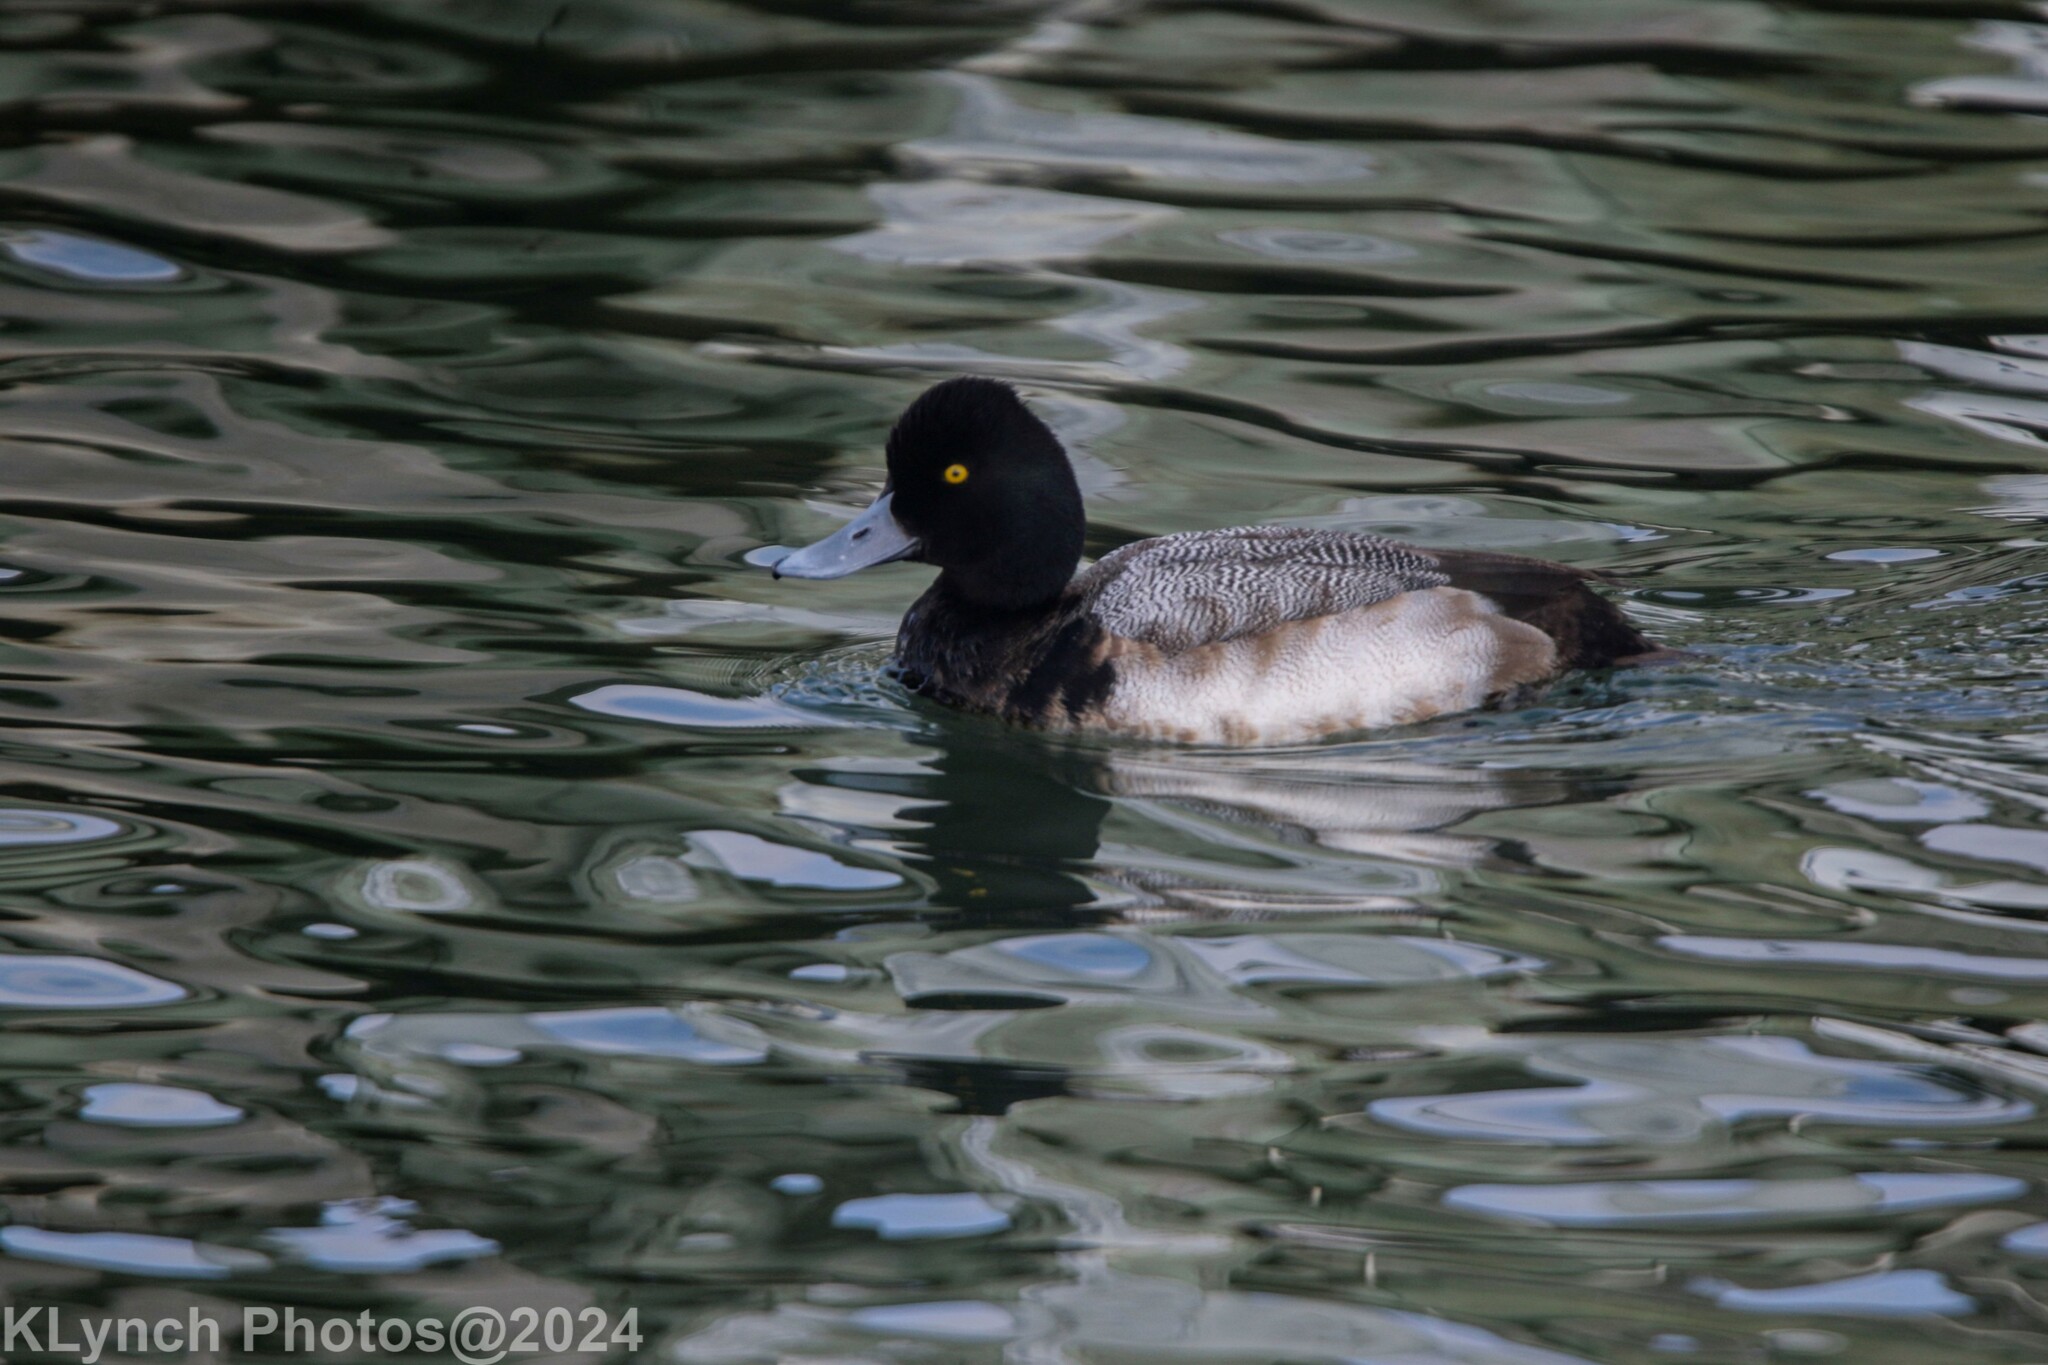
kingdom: Animalia
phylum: Chordata
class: Aves
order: Anseriformes
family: Anatidae
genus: Aythya
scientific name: Aythya affinis
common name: Lesser scaup
